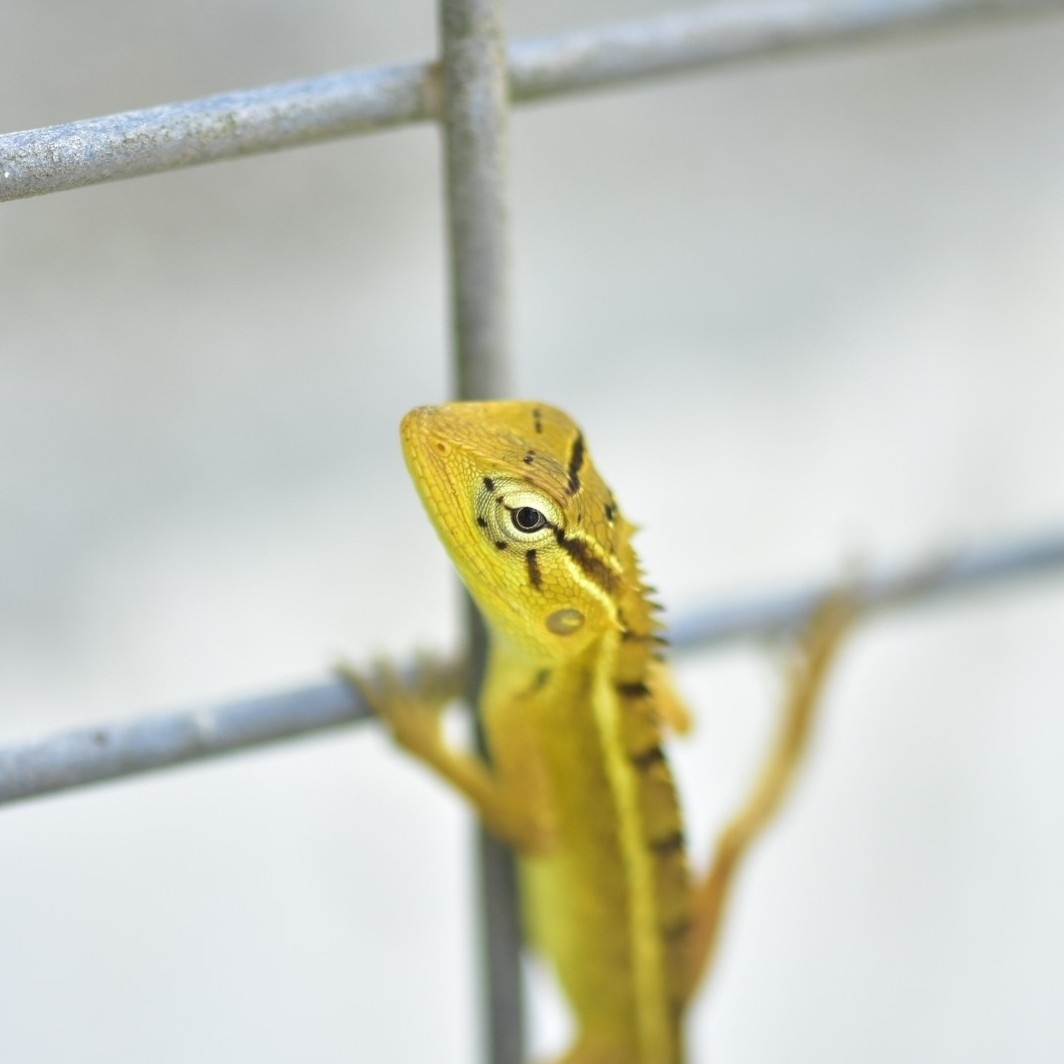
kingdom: Animalia
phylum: Chordata
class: Squamata
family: Agamidae
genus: Calotes
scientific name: Calotes versicolor
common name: Oriental garden lizard
